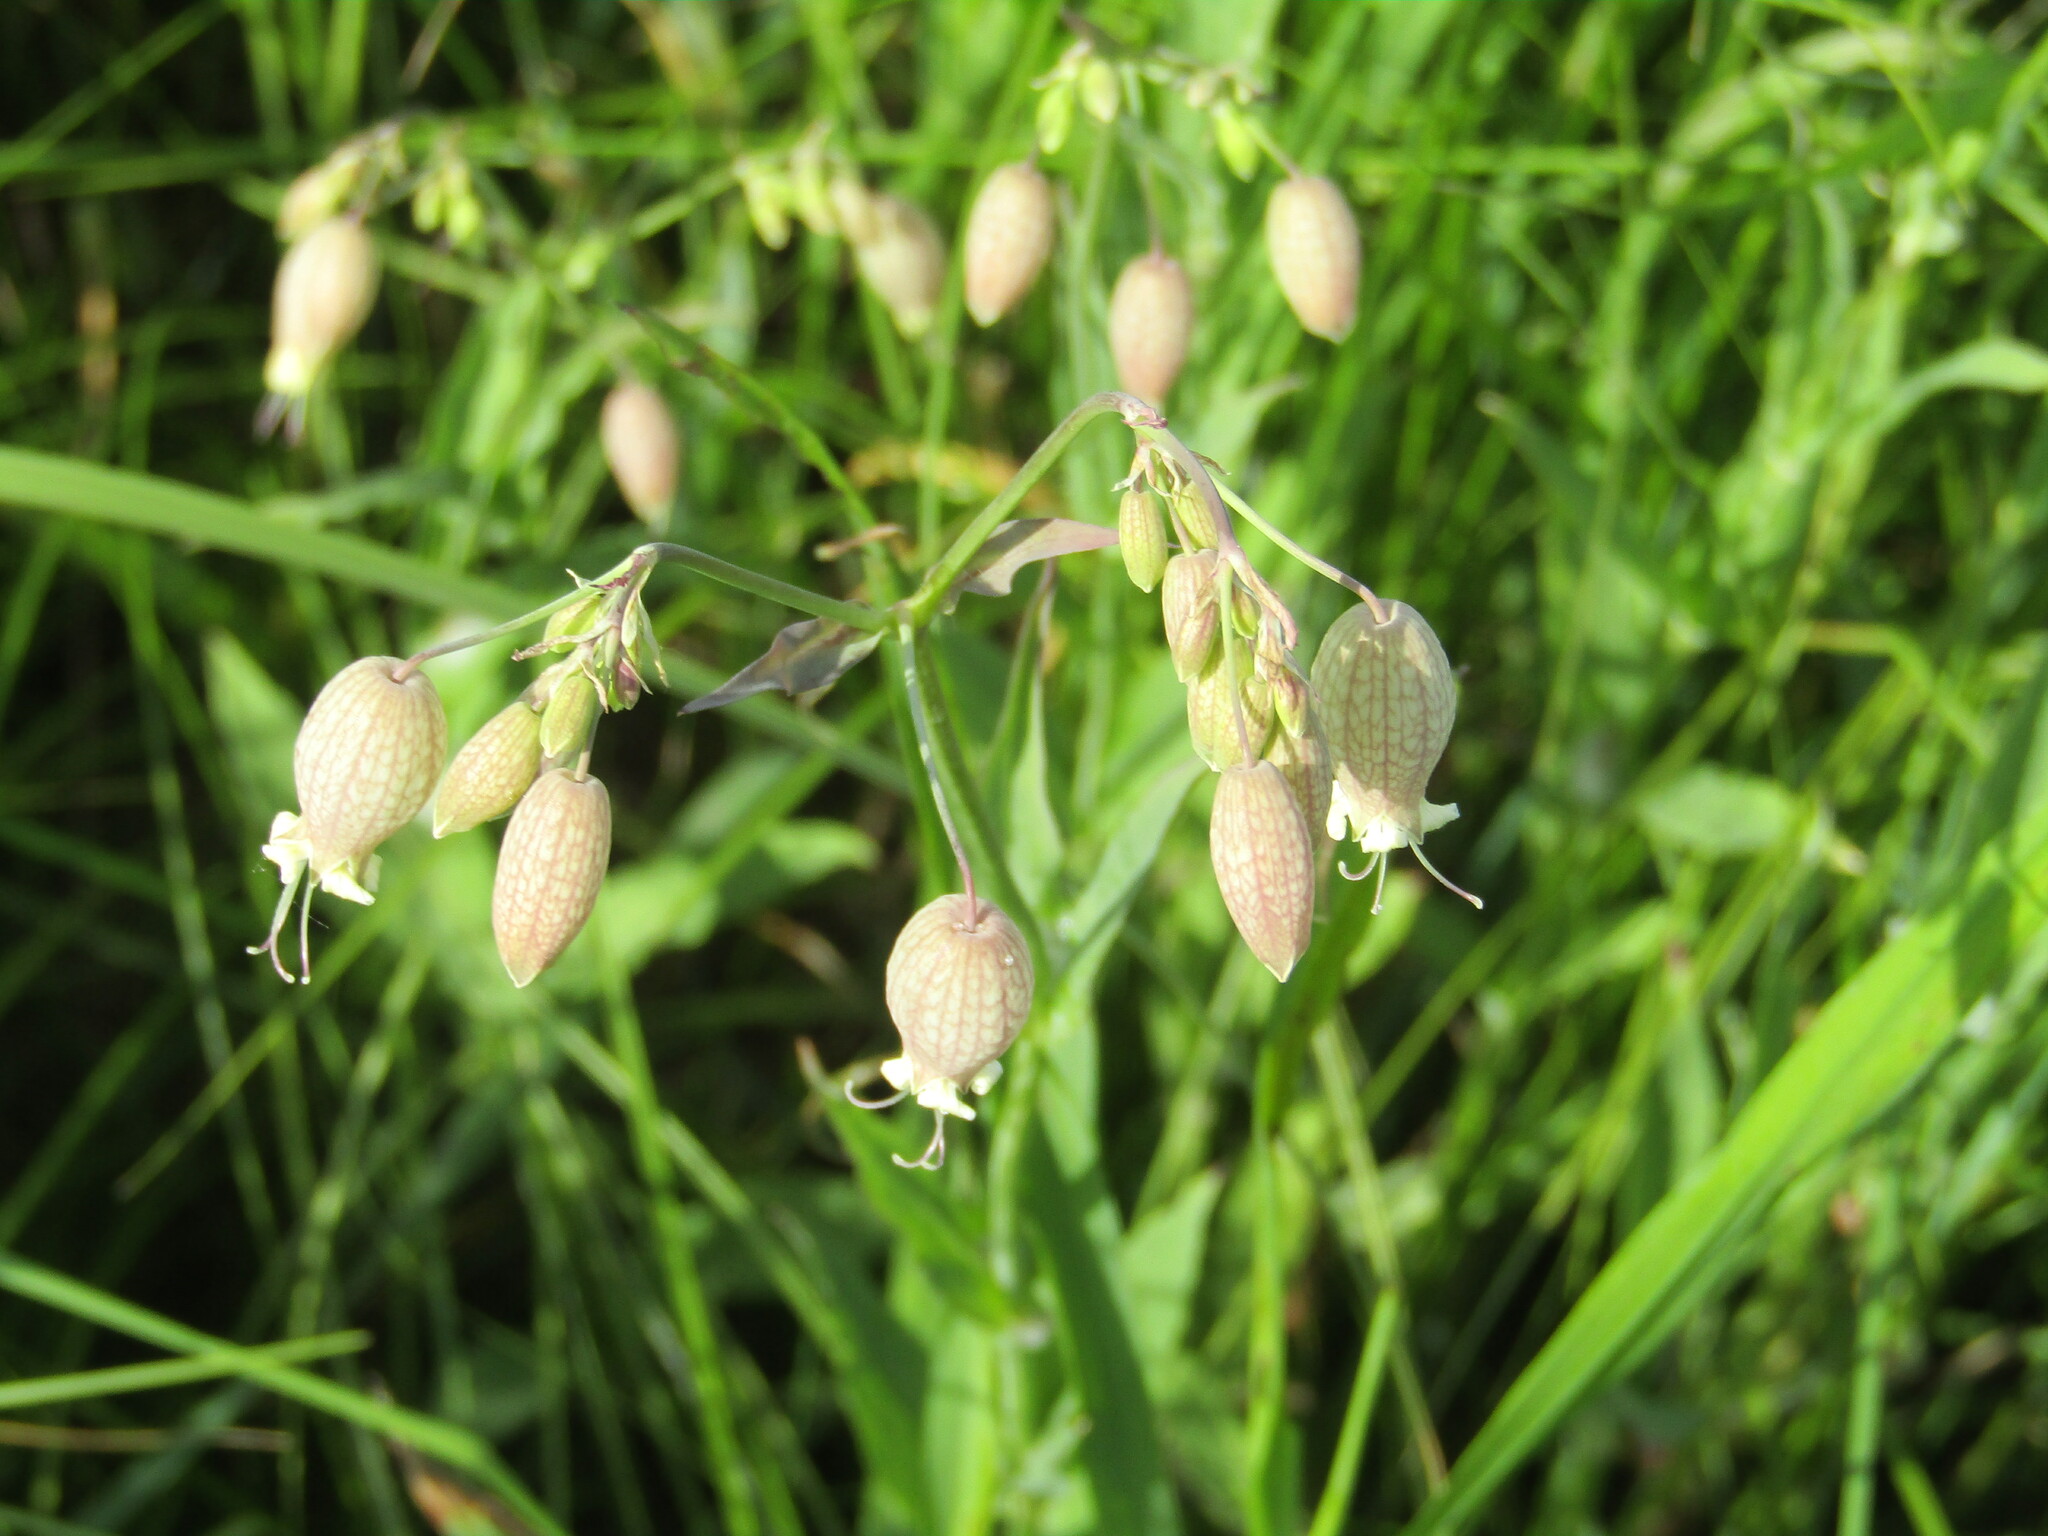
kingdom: Plantae
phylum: Tracheophyta
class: Magnoliopsida
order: Caryophyllales
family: Caryophyllaceae
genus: Silene
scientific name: Silene vulgaris
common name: Bladder campion
